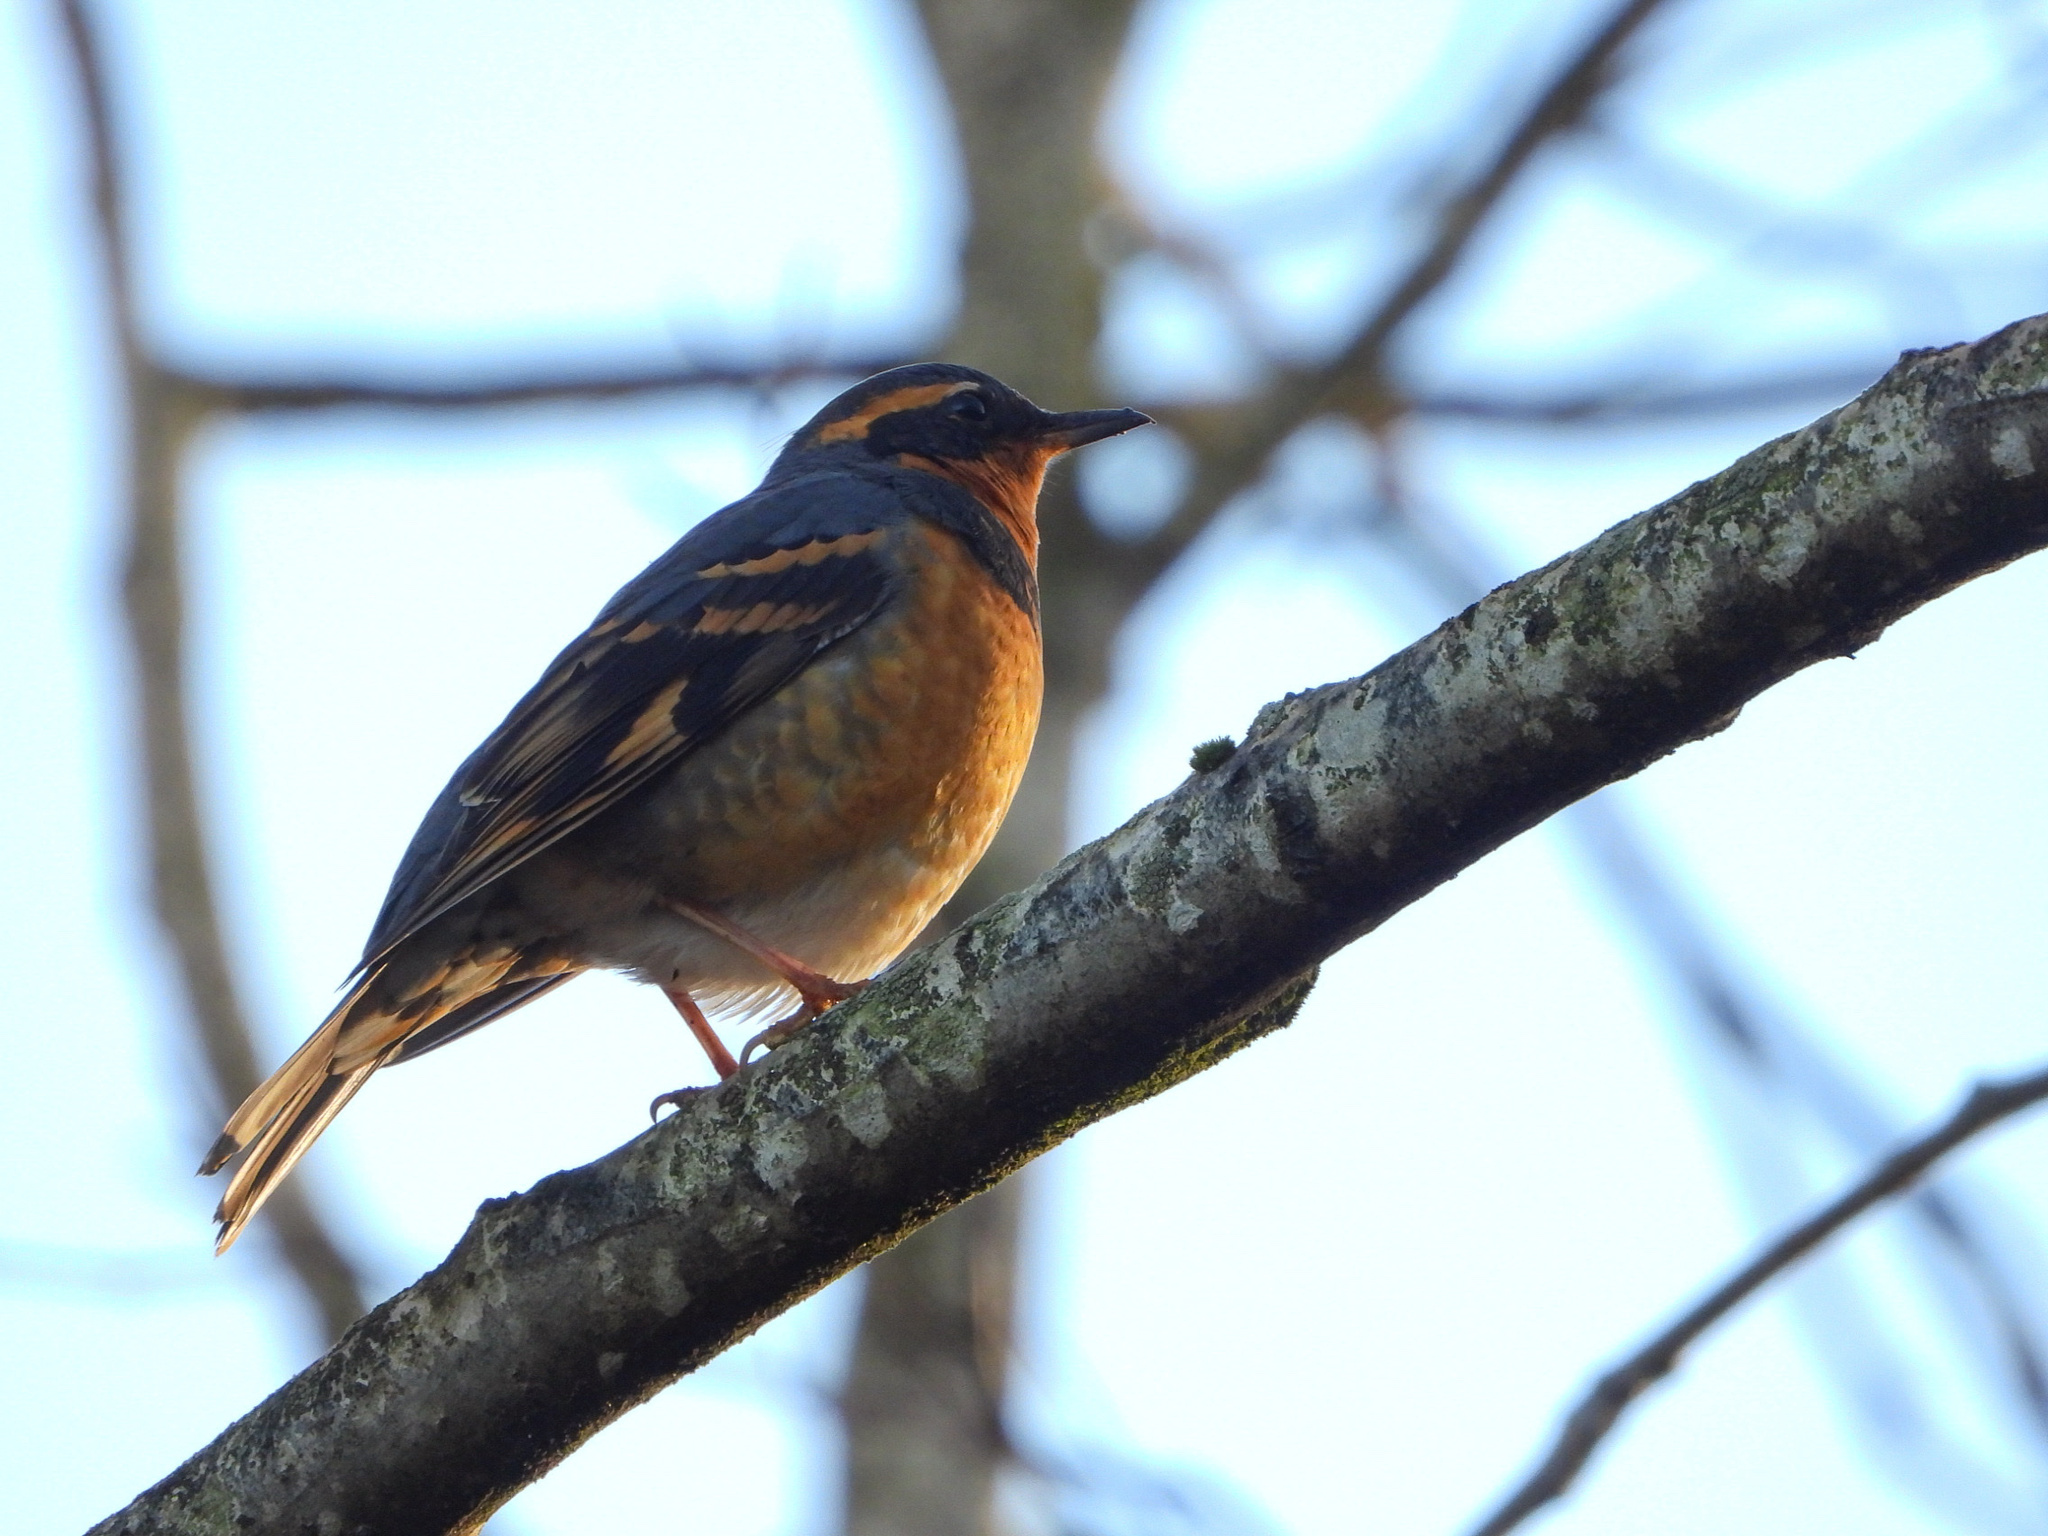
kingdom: Animalia
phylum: Chordata
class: Aves
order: Passeriformes
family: Turdidae
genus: Ixoreus
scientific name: Ixoreus naevius
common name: Varied thrush
